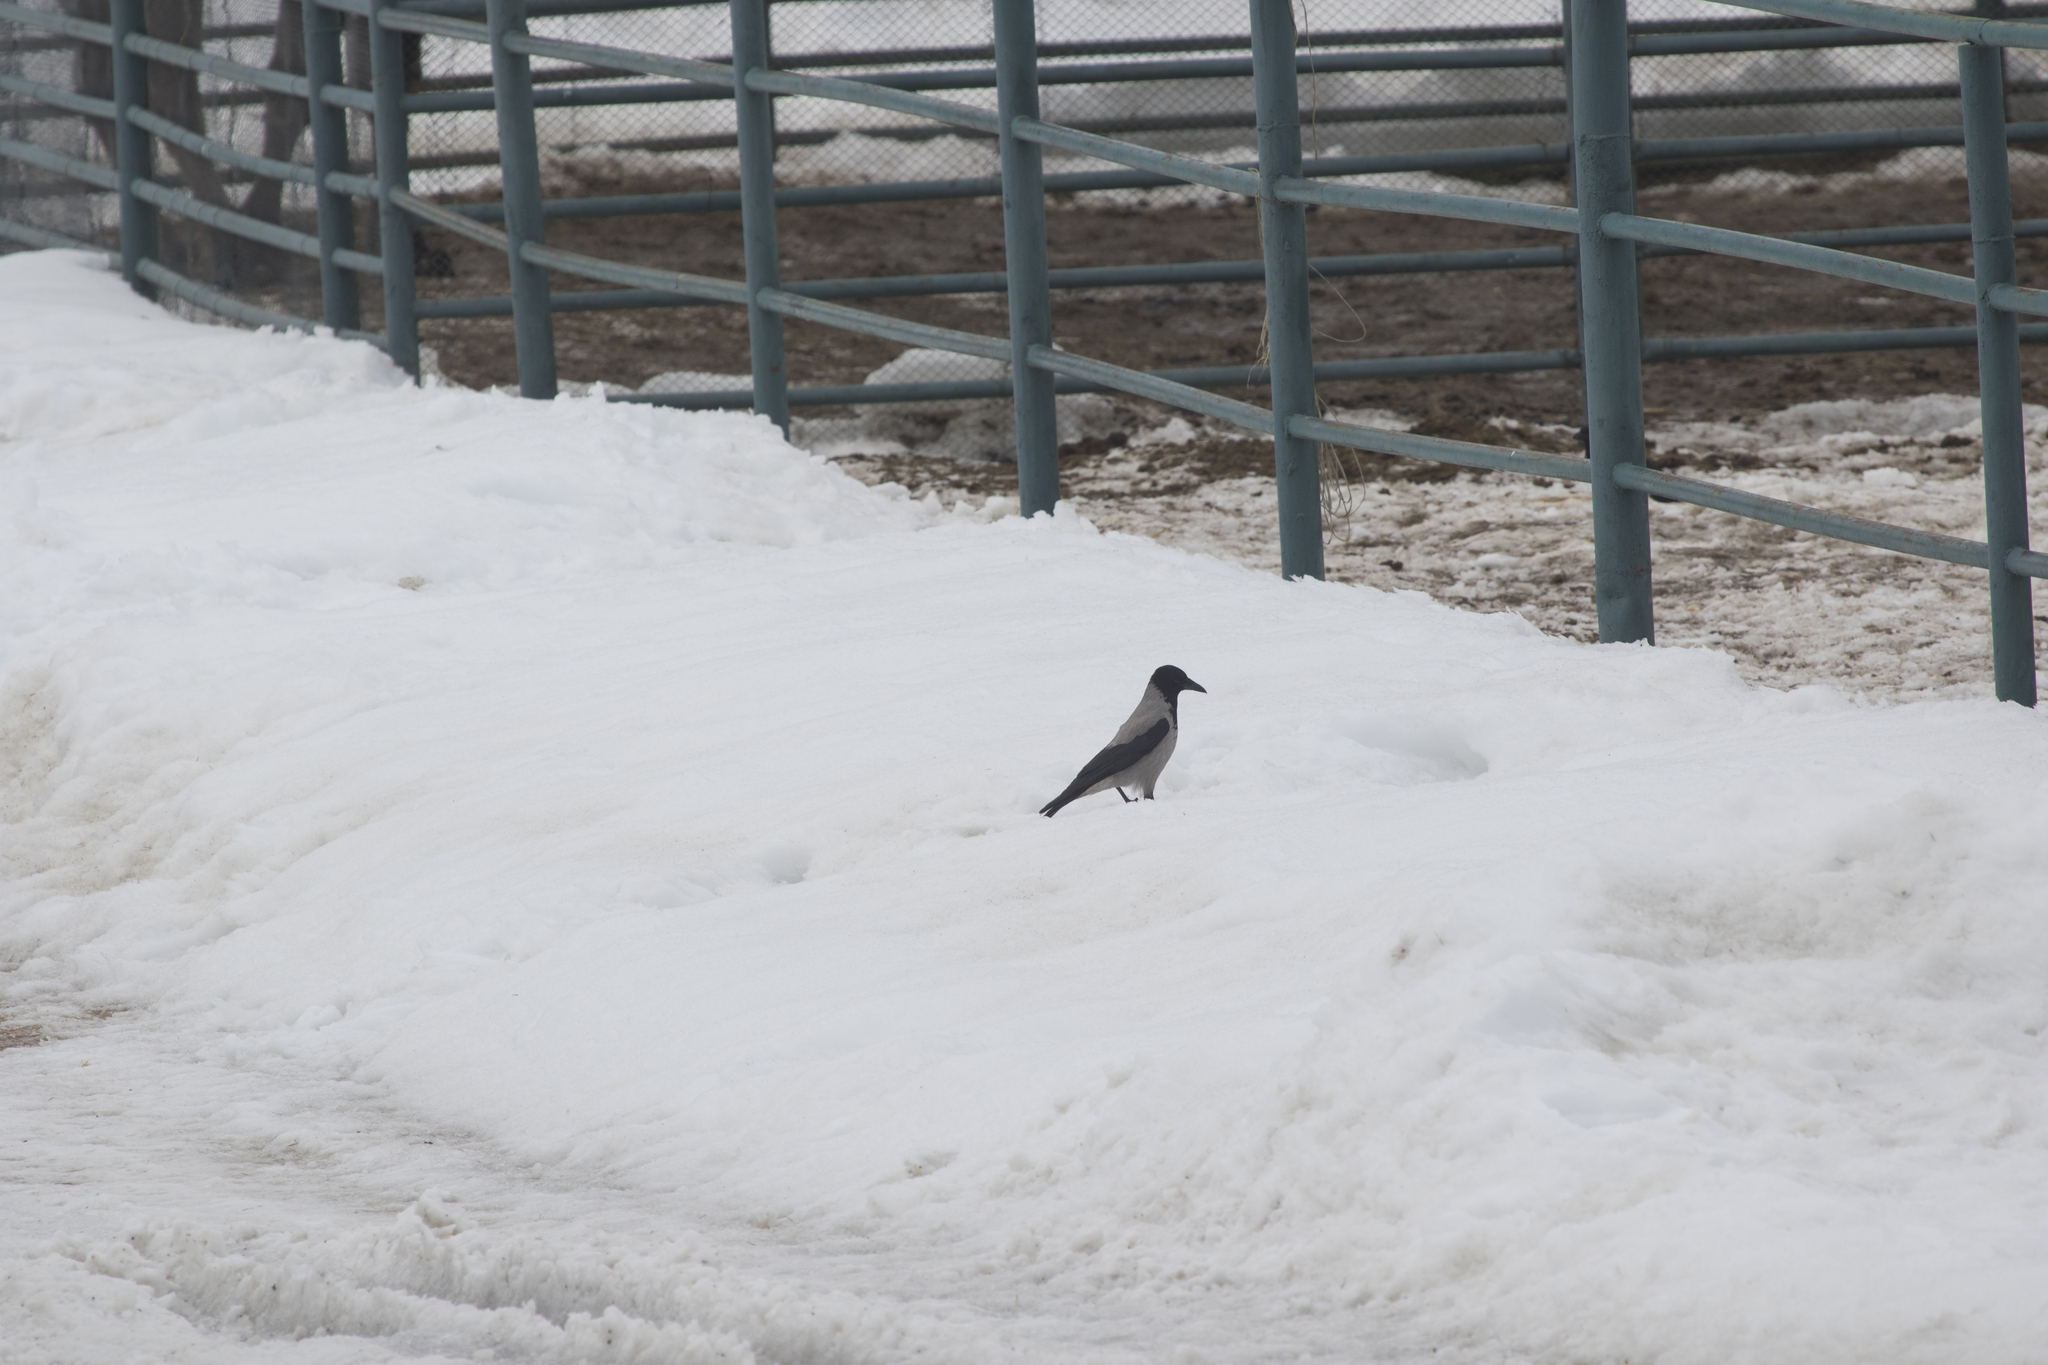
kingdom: Animalia
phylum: Chordata
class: Aves
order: Passeriformes
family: Corvidae
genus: Corvus
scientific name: Corvus cornix
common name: Hooded crow
